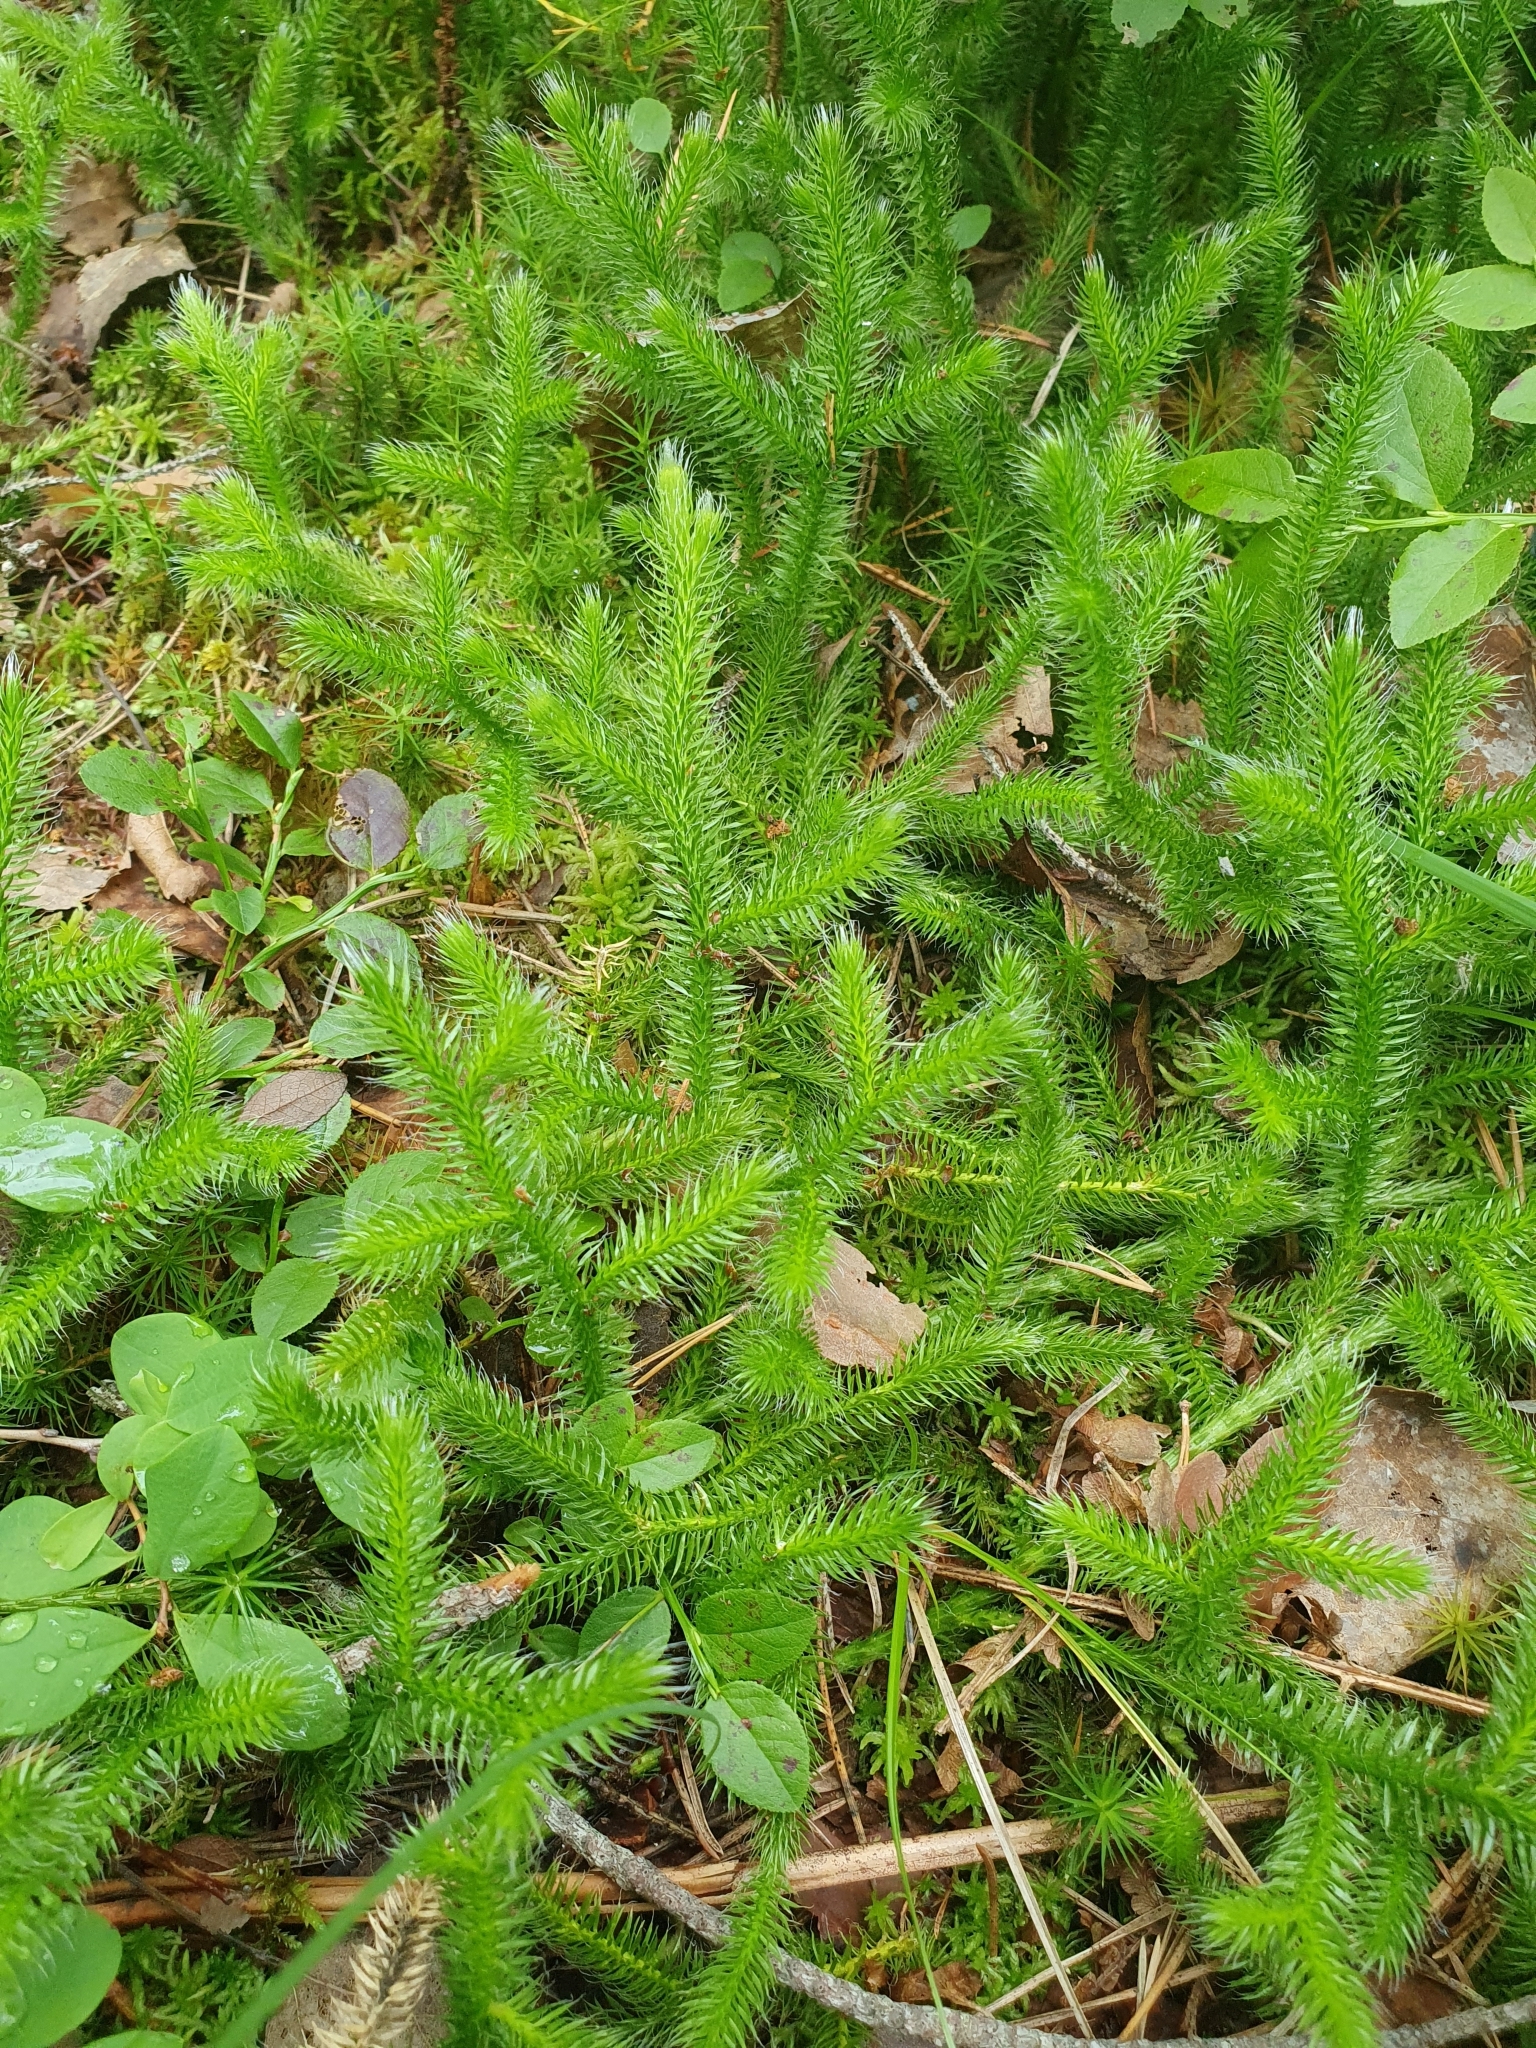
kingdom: Plantae
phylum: Tracheophyta
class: Lycopodiopsida
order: Lycopodiales
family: Lycopodiaceae
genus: Lycopodium
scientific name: Lycopodium clavatum
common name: Stag's-horn clubmoss
